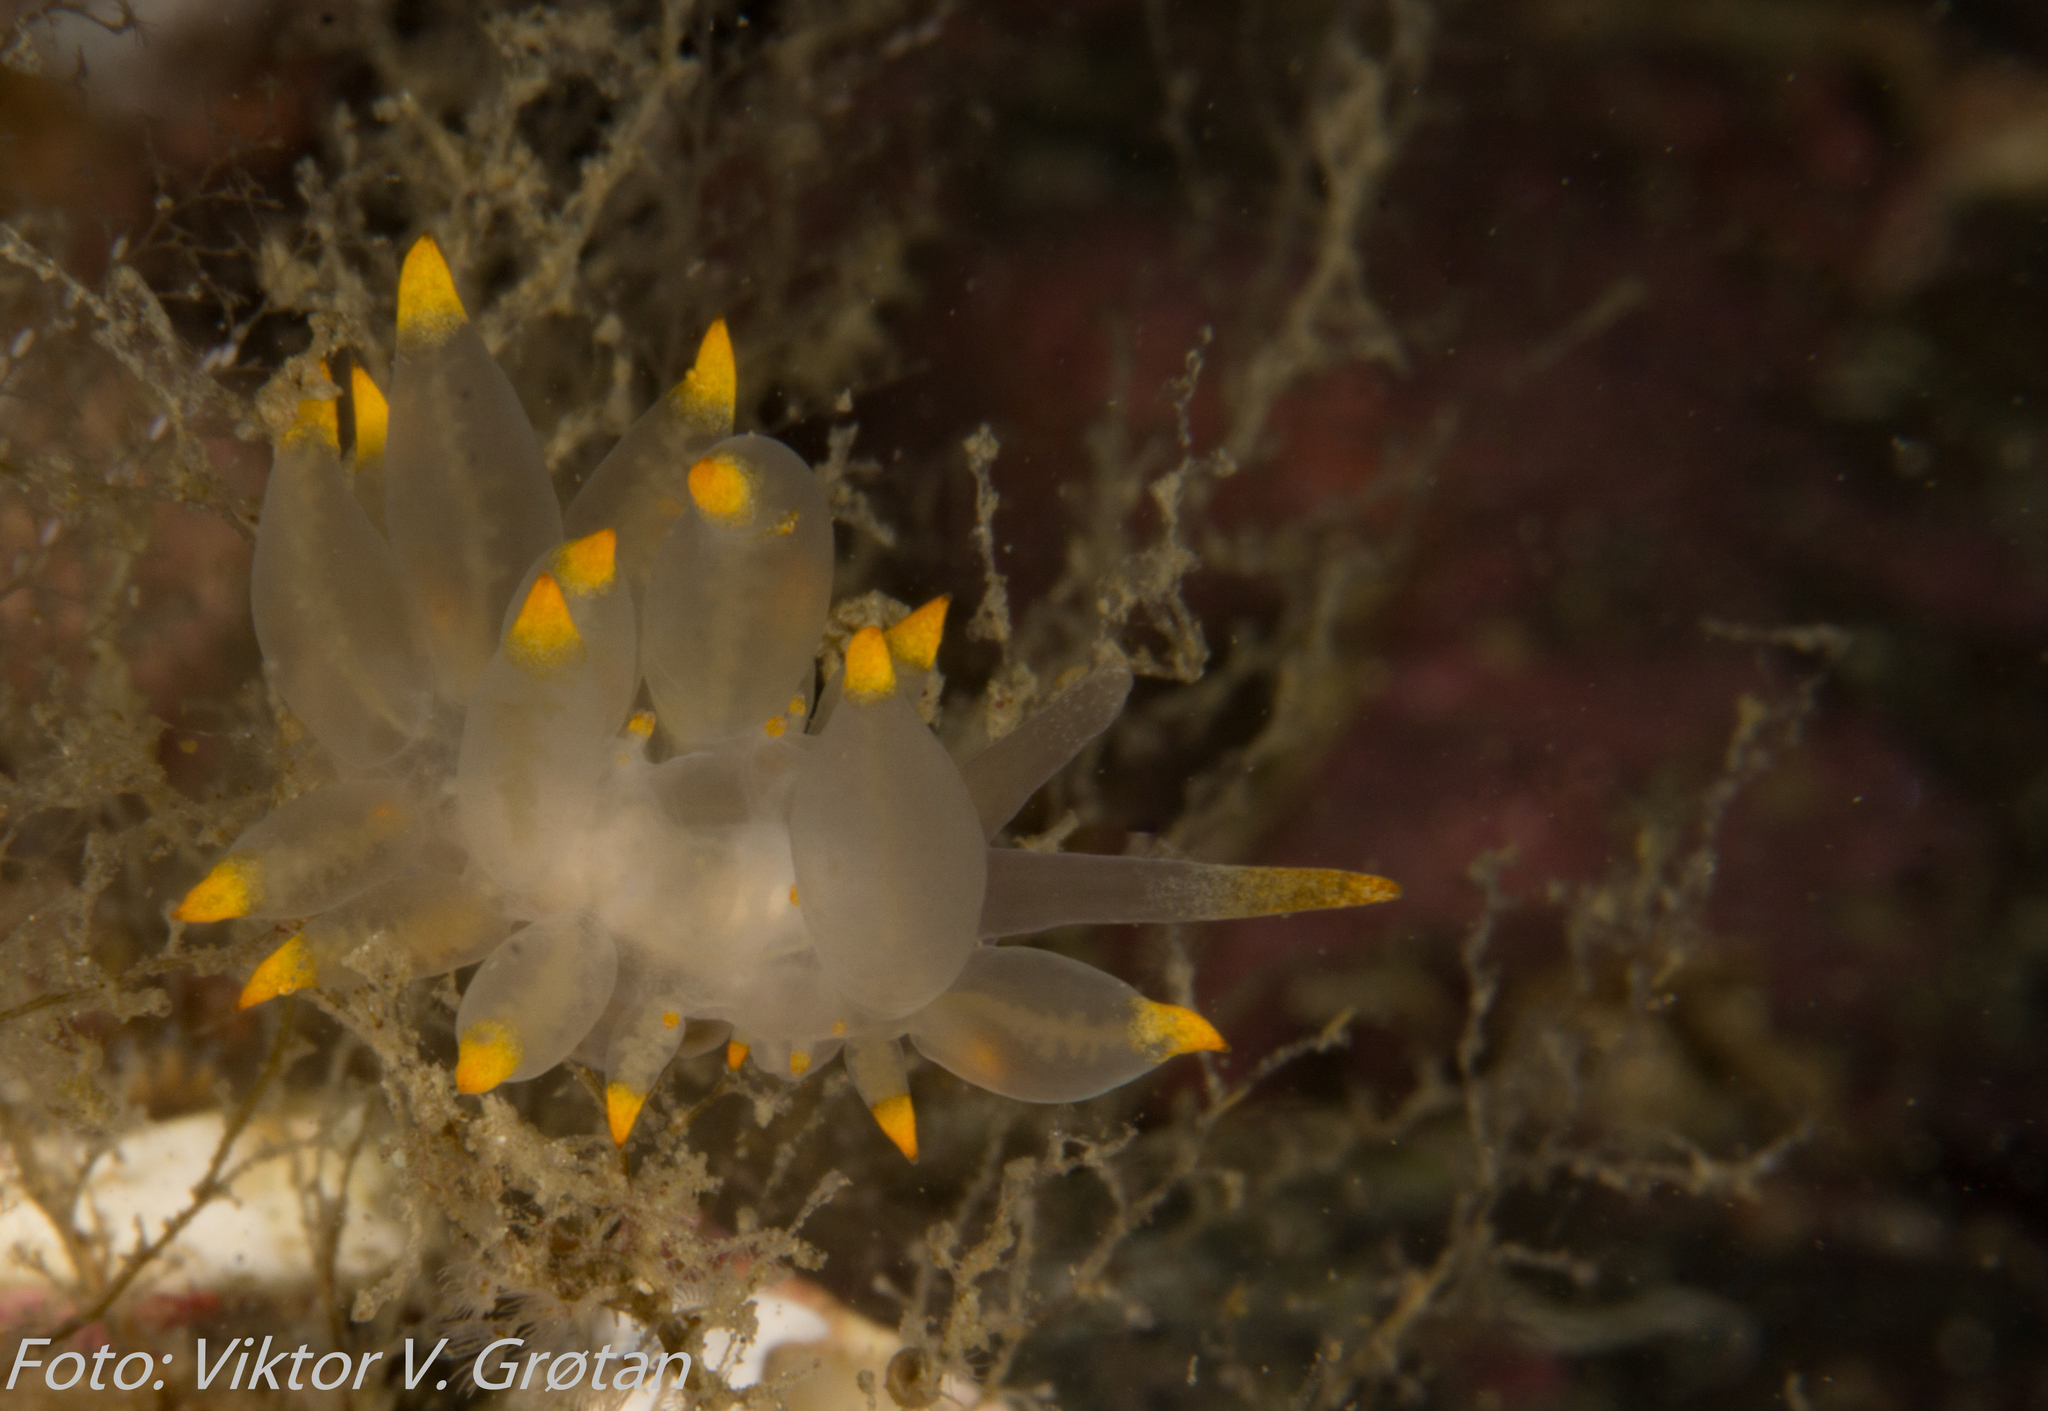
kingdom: Animalia
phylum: Mollusca
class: Gastropoda
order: Nudibranchia
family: Eubranchidae
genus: Amphorina
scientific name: Amphorina farrani
